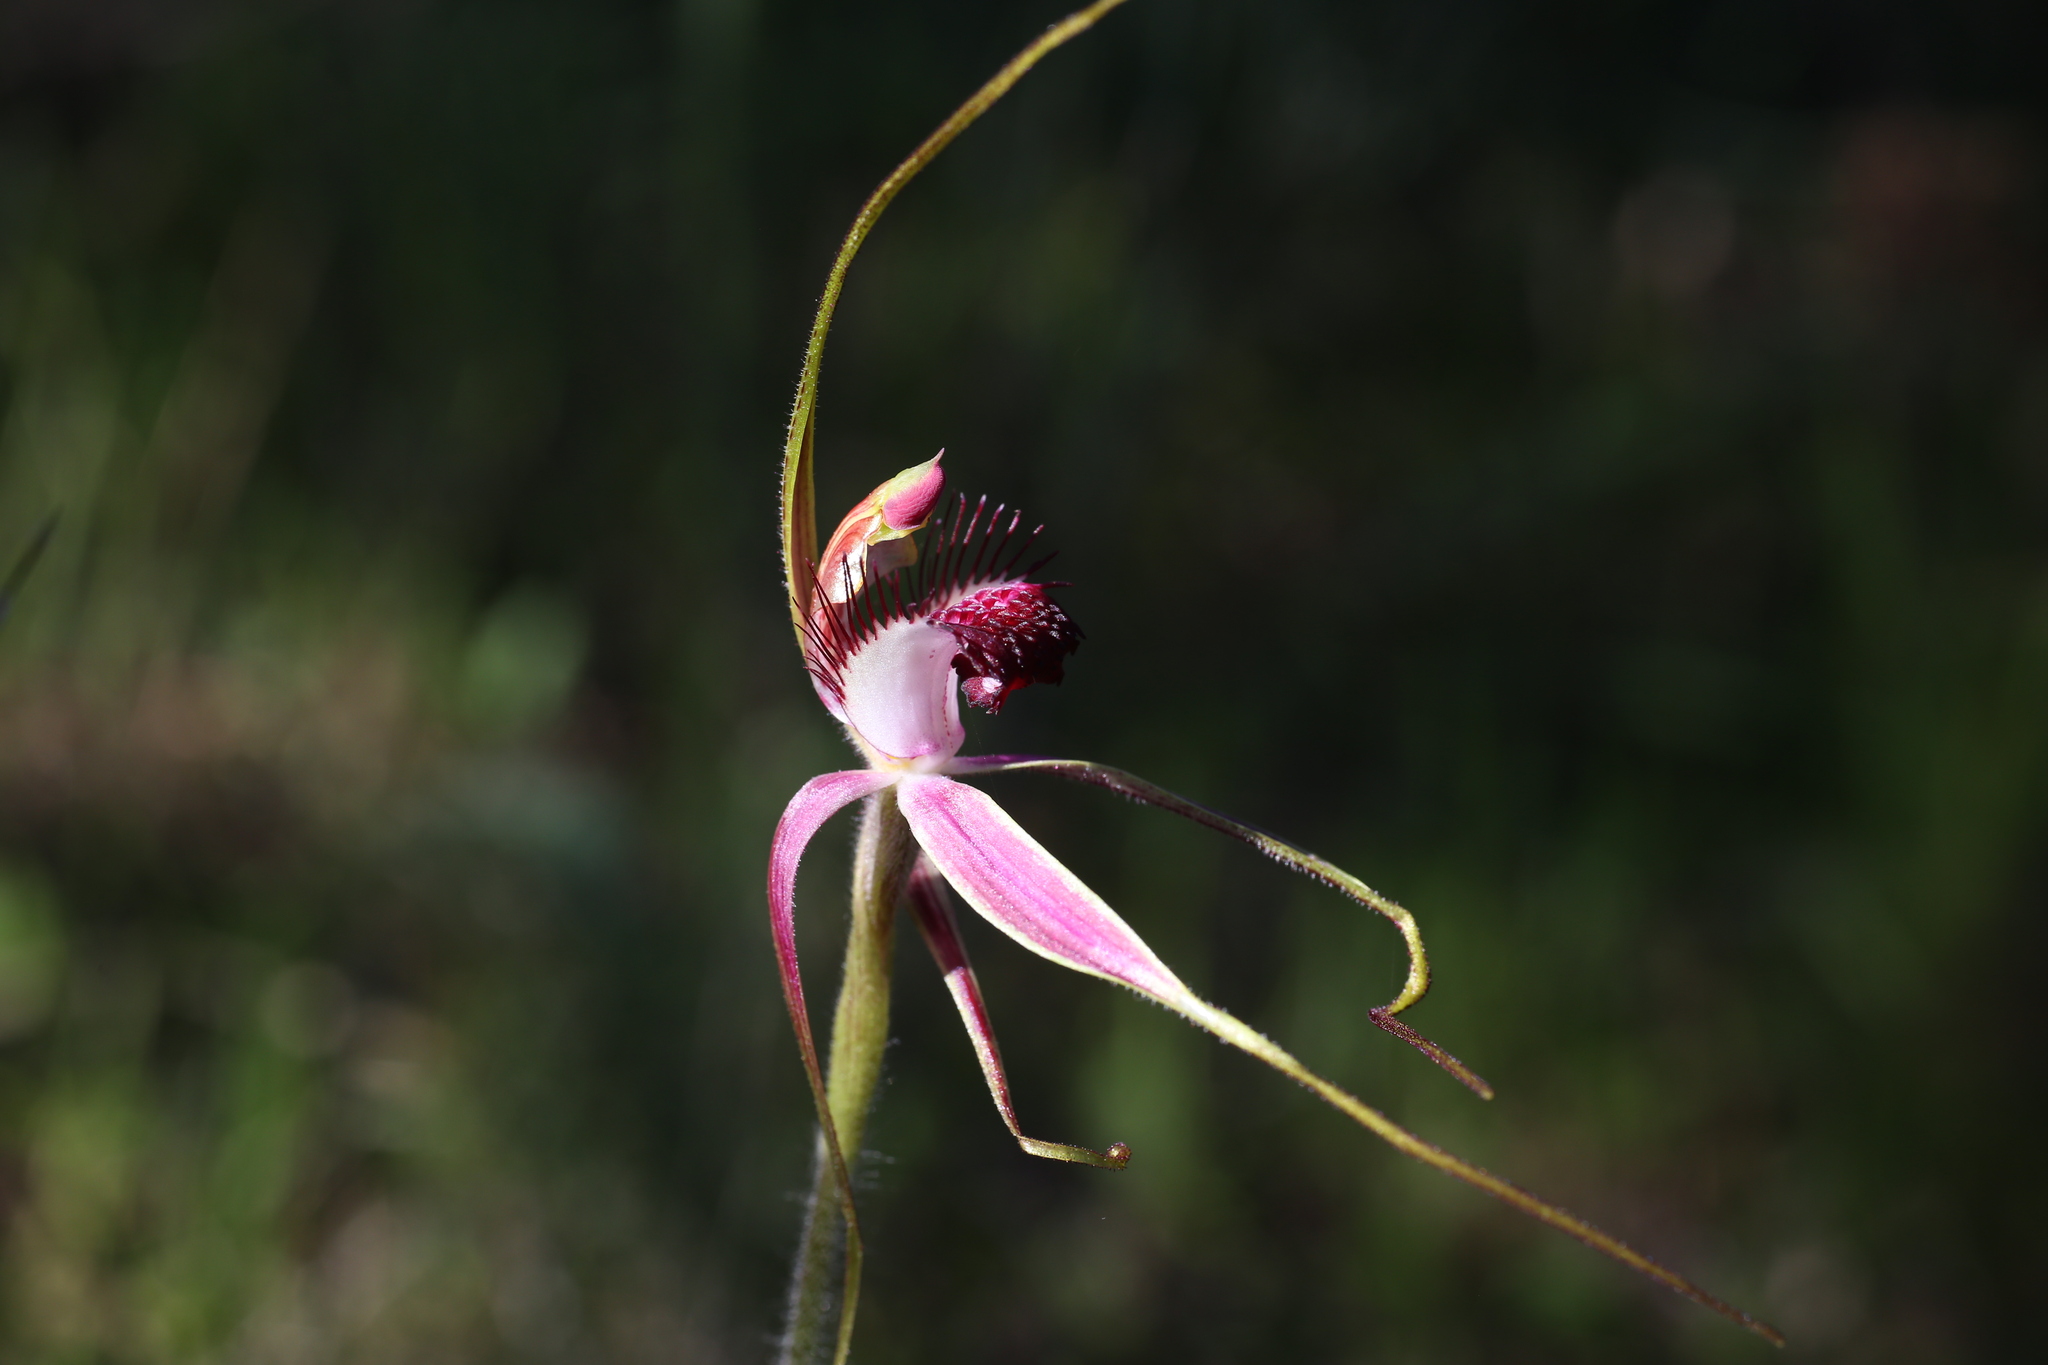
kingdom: Plantae
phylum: Tracheophyta
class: Liliopsida
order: Asparagales
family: Orchidaceae
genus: Caladenia
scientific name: Caladenia lorea
